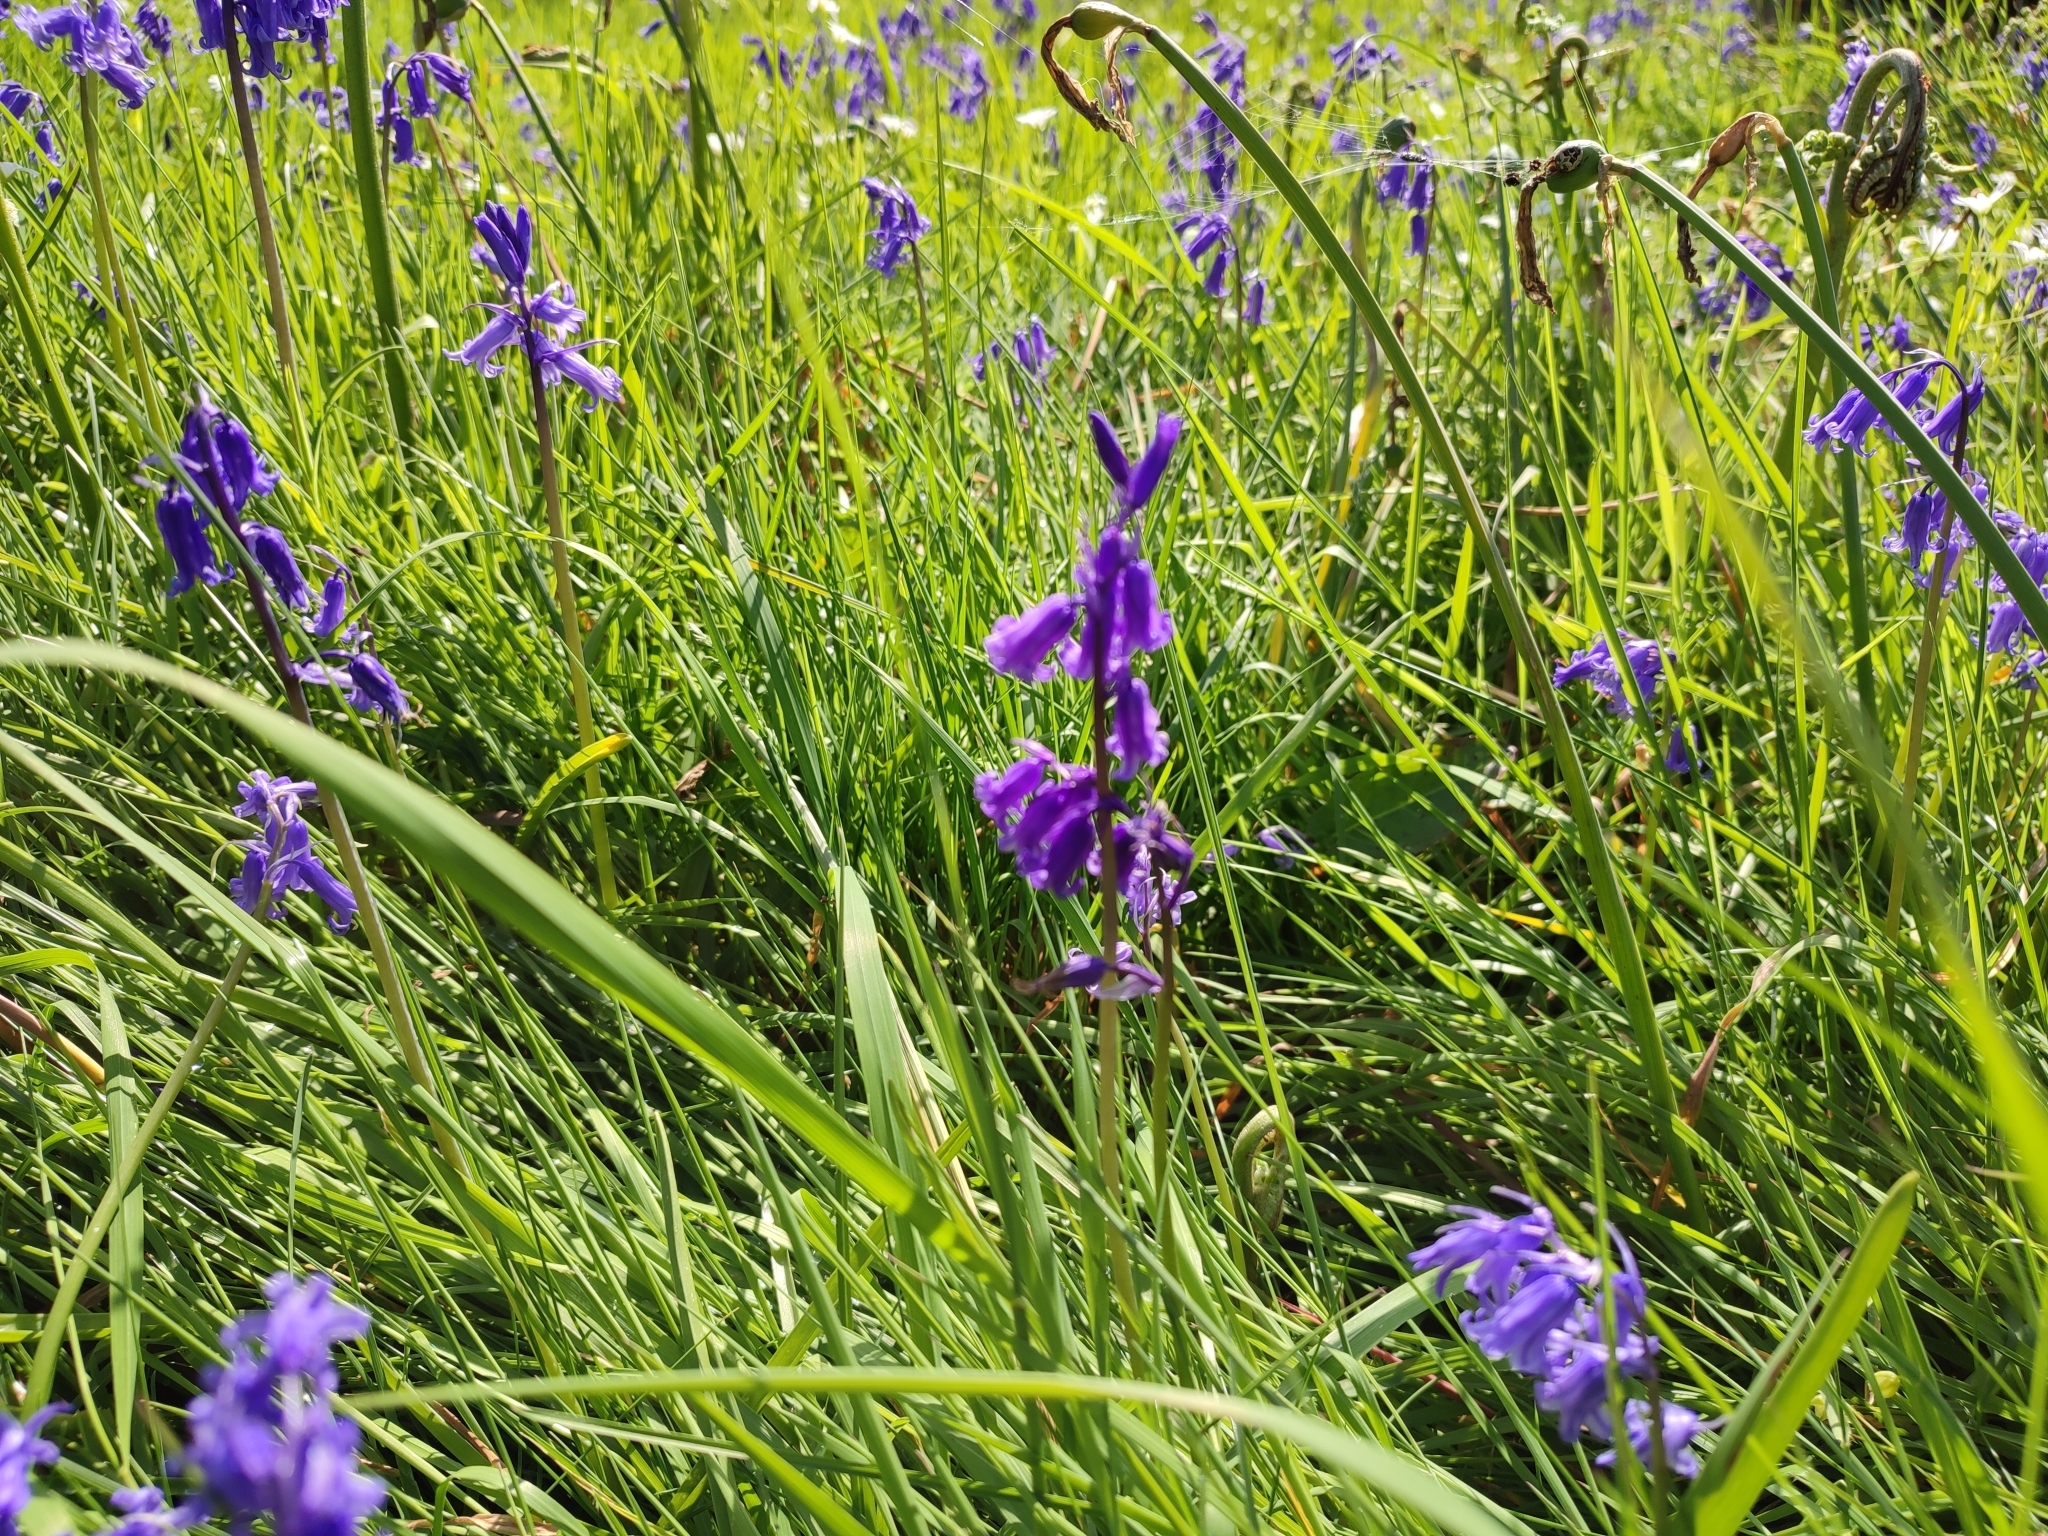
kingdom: Plantae
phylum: Tracheophyta
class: Liliopsida
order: Asparagales
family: Asparagaceae
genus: Hyacinthoides
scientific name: Hyacinthoides non-scripta
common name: Bluebell
